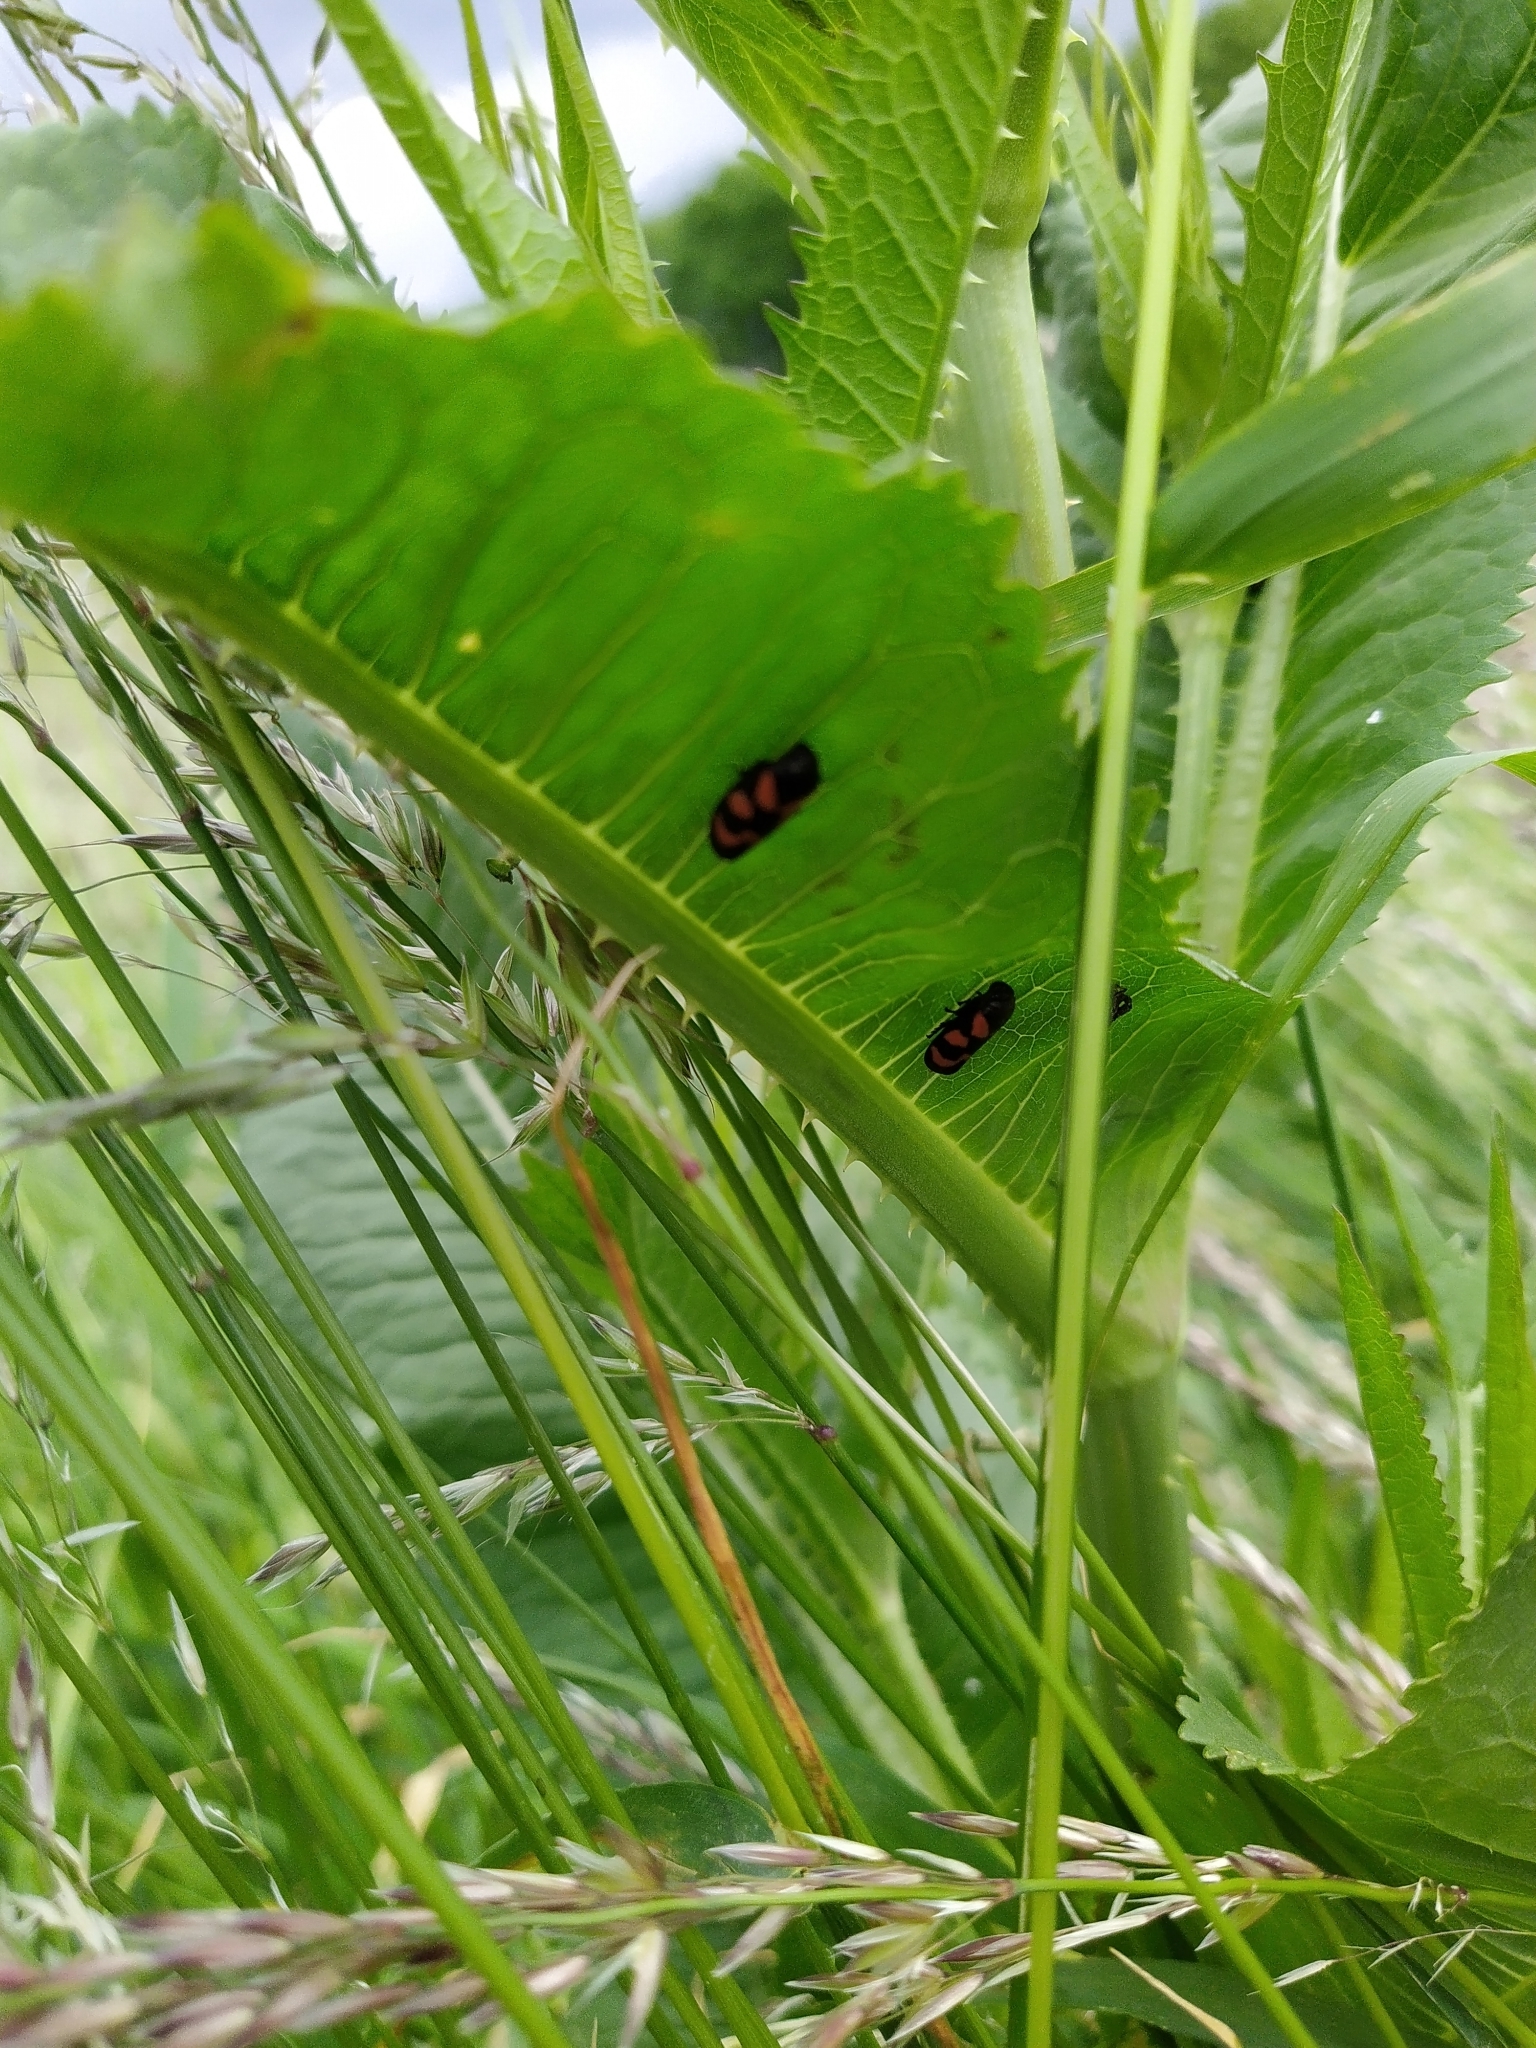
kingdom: Animalia
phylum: Arthropoda
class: Insecta
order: Hemiptera
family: Cercopidae
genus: Cercopis
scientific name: Cercopis vulnerata
